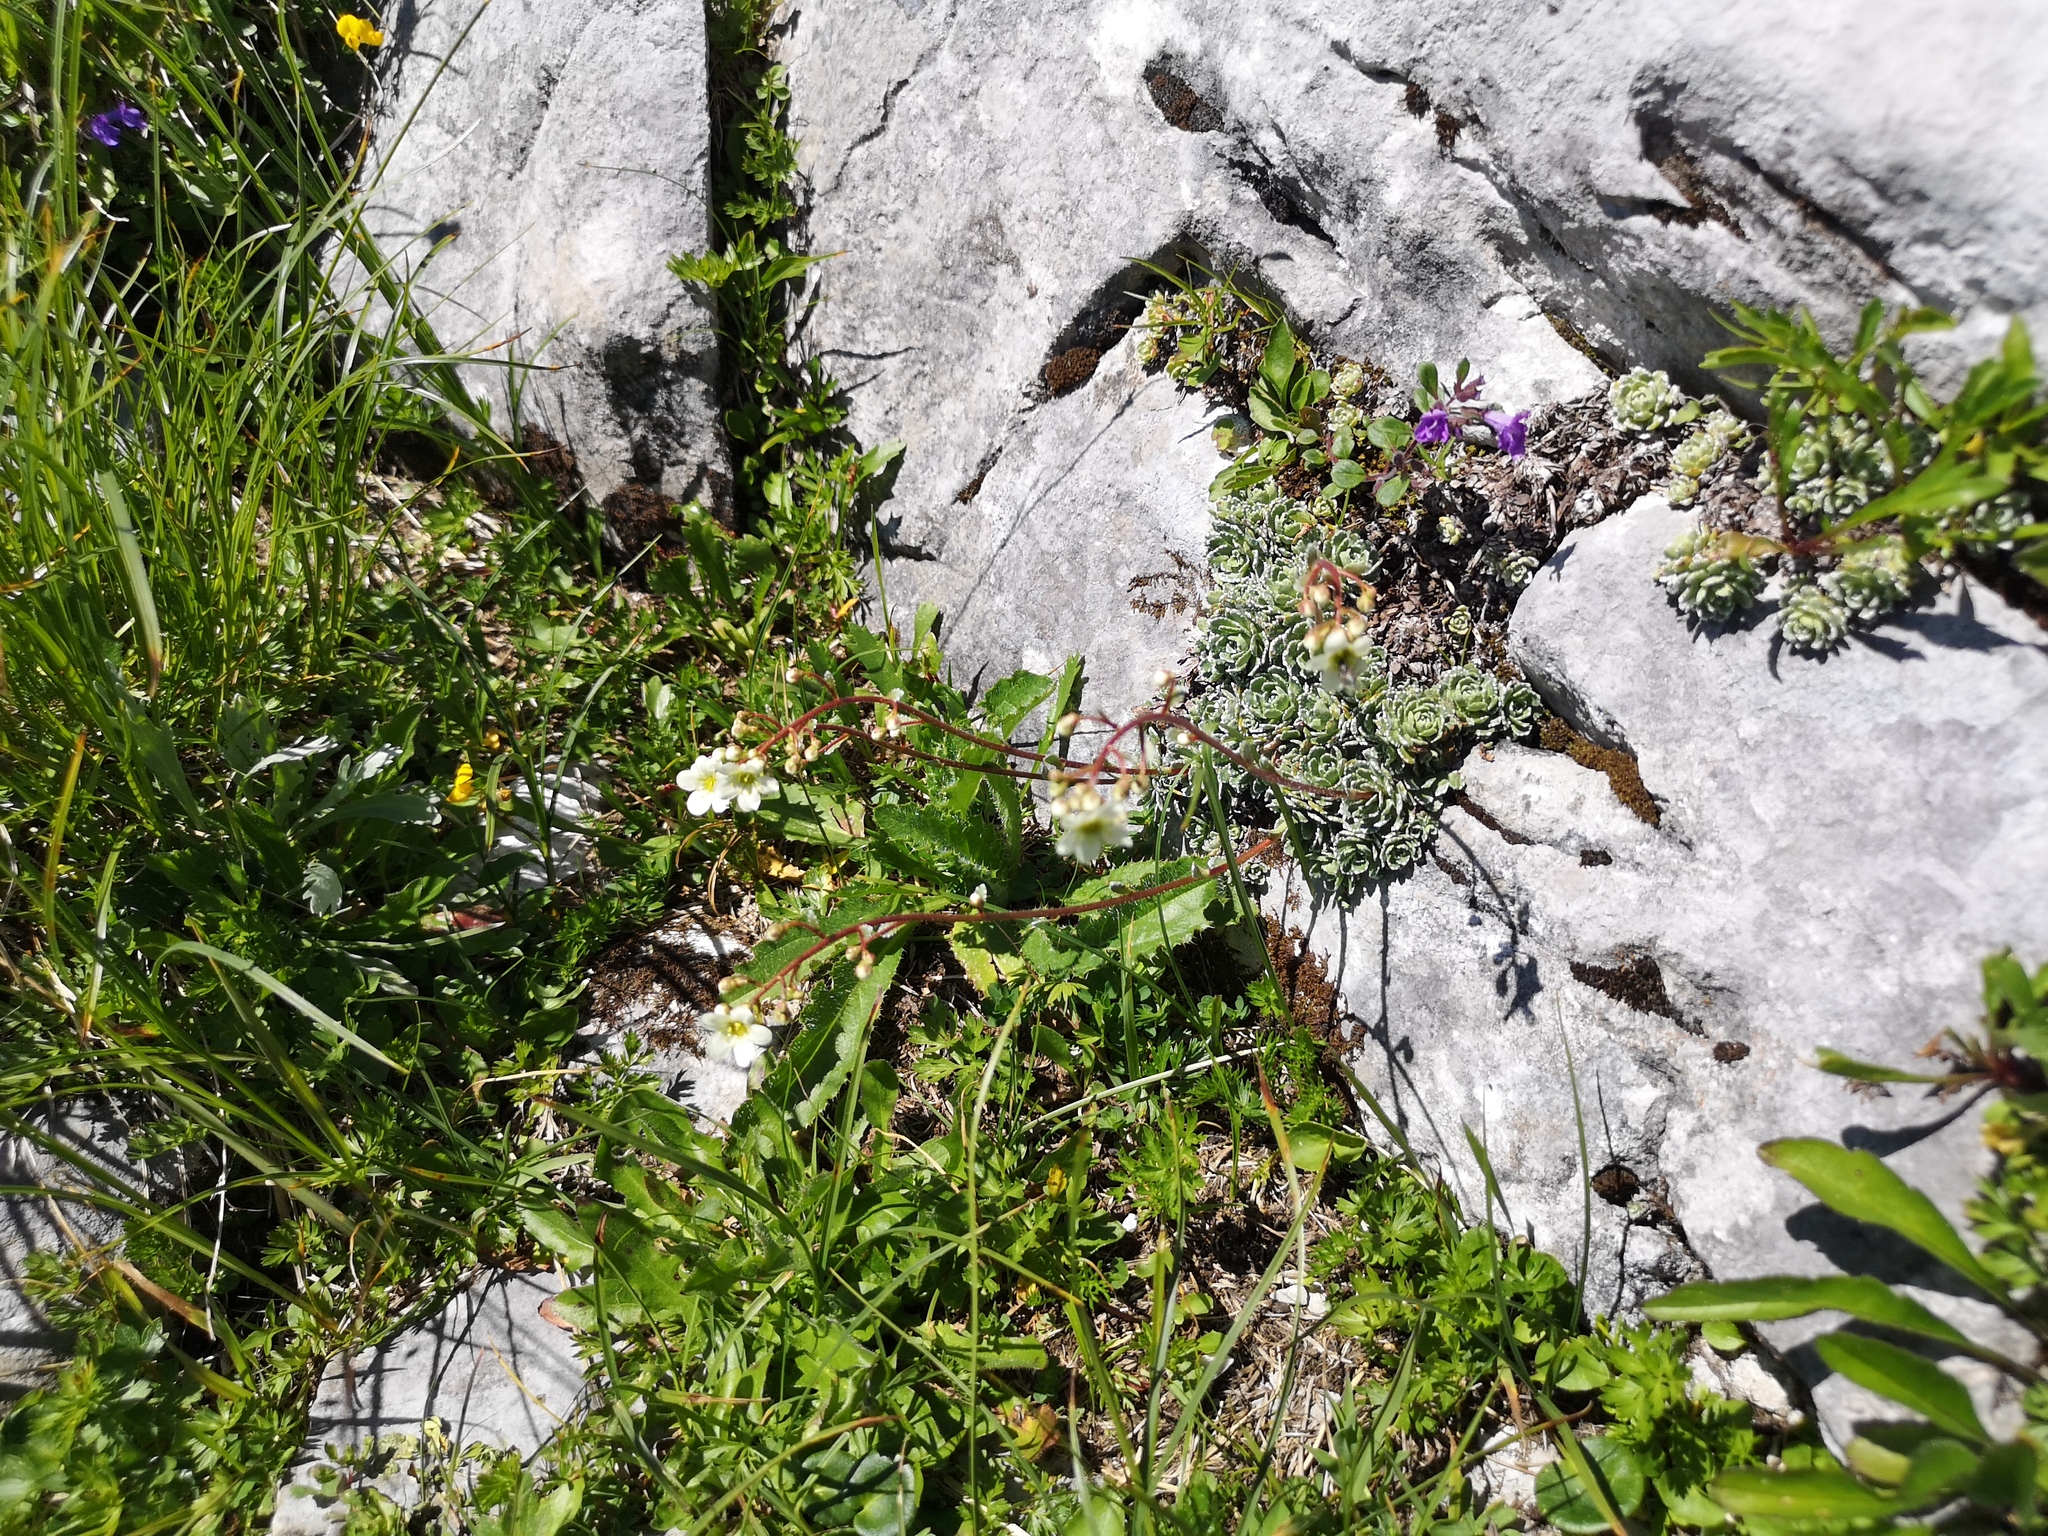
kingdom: Plantae
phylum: Tracheophyta
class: Magnoliopsida
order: Saxifragales
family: Saxifragaceae
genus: Saxifraga
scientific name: Saxifraga paniculata
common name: Livelong saxifrage
